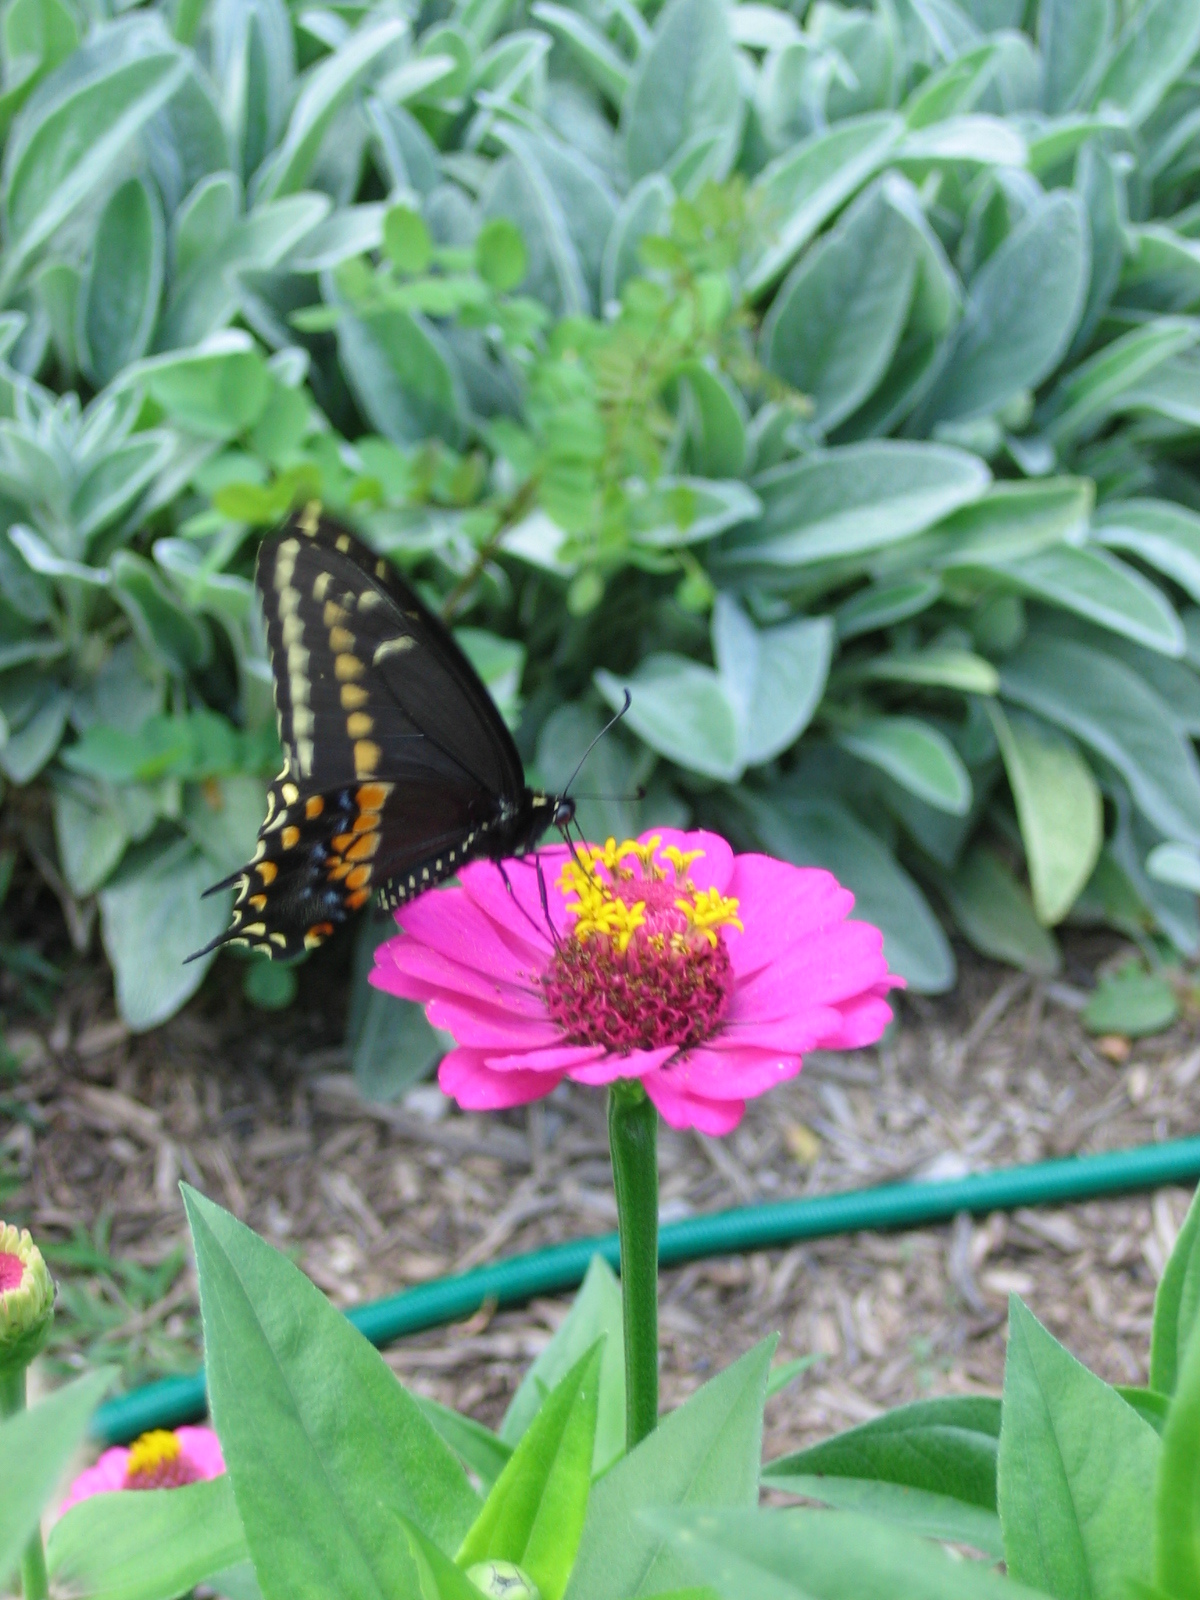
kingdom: Animalia
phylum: Arthropoda
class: Insecta
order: Lepidoptera
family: Papilionidae
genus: Papilio
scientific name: Papilio polyxenes
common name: Black swallowtail
